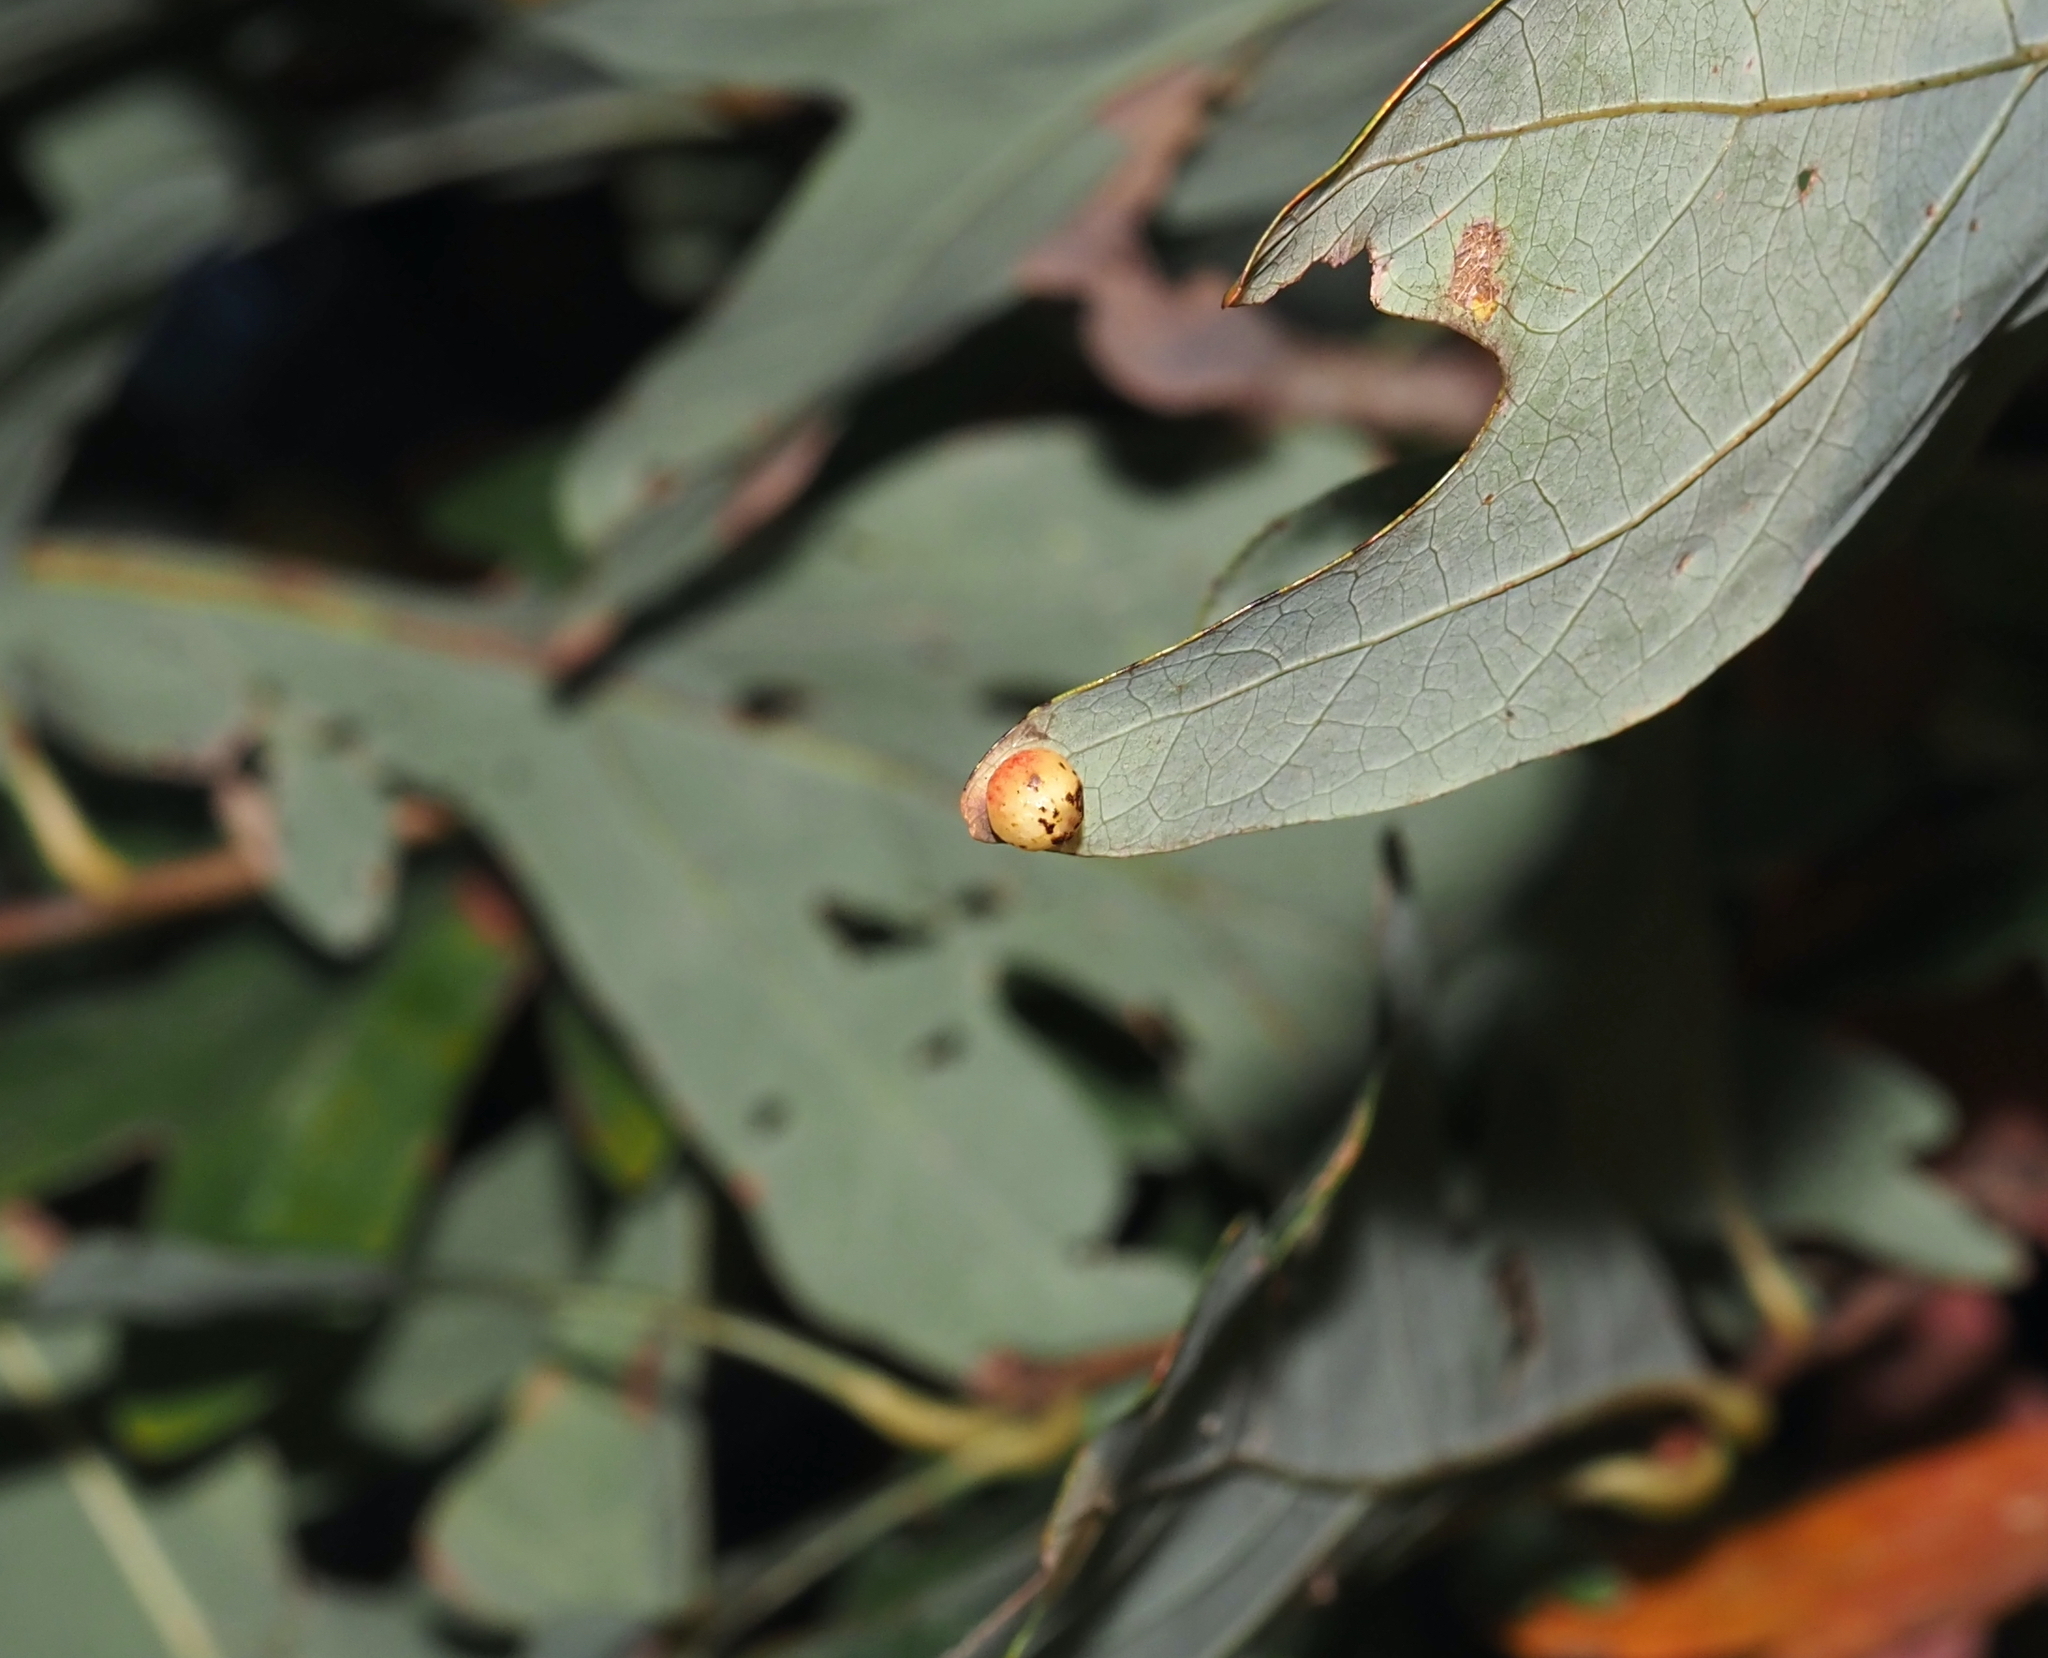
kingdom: Animalia
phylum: Arthropoda
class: Insecta
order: Hymenoptera
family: Cynipidae
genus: Andricus
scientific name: Andricus
